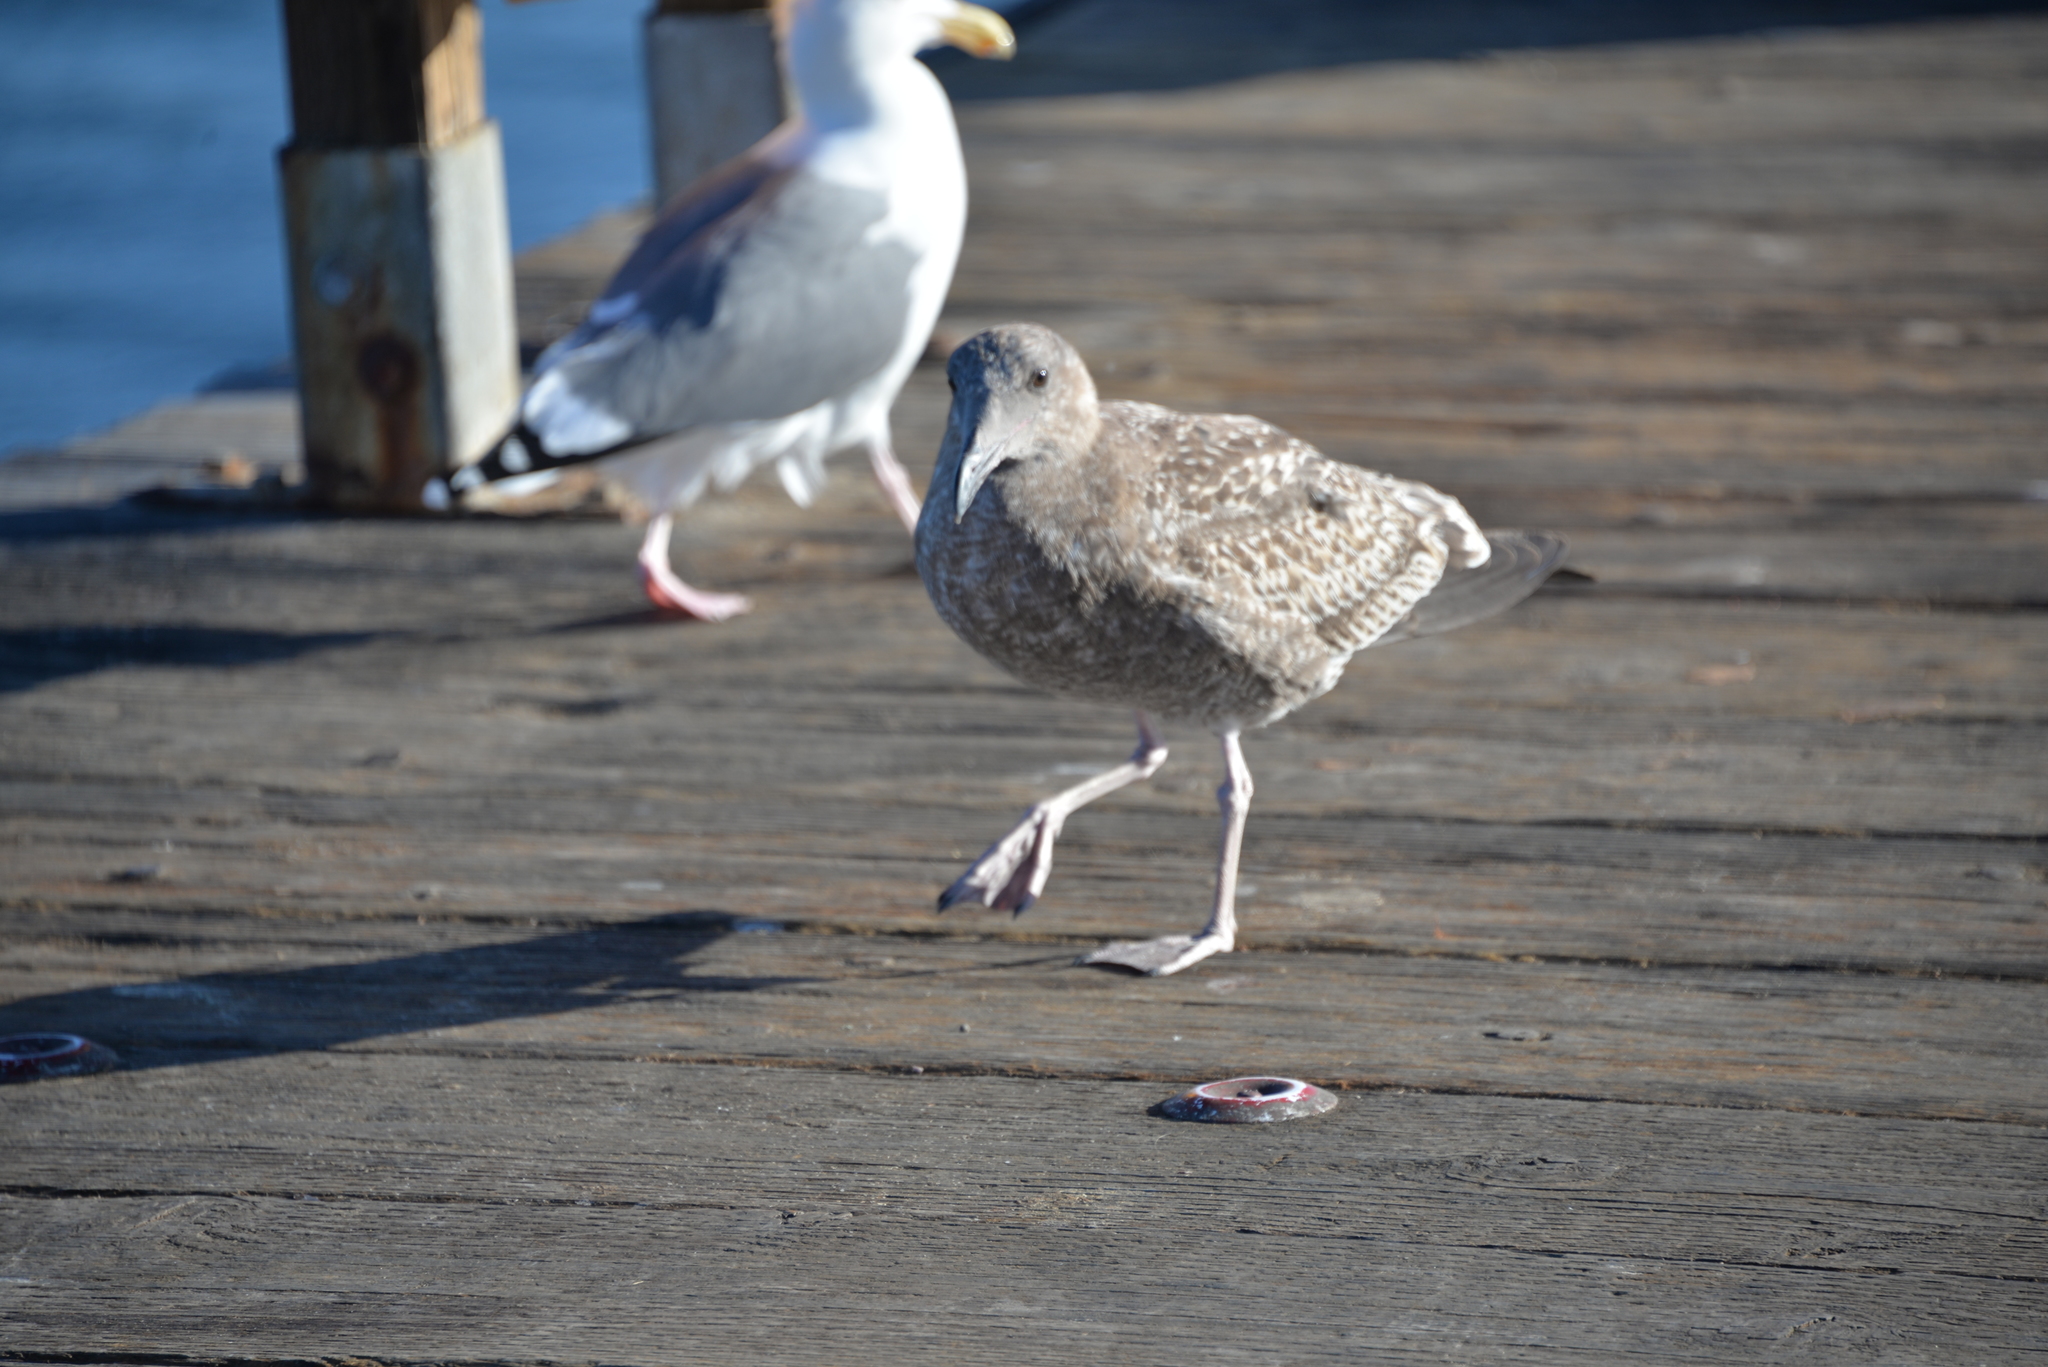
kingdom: Animalia
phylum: Chordata
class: Aves
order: Charadriiformes
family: Laridae
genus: Larus
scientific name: Larus occidentalis
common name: Western gull
